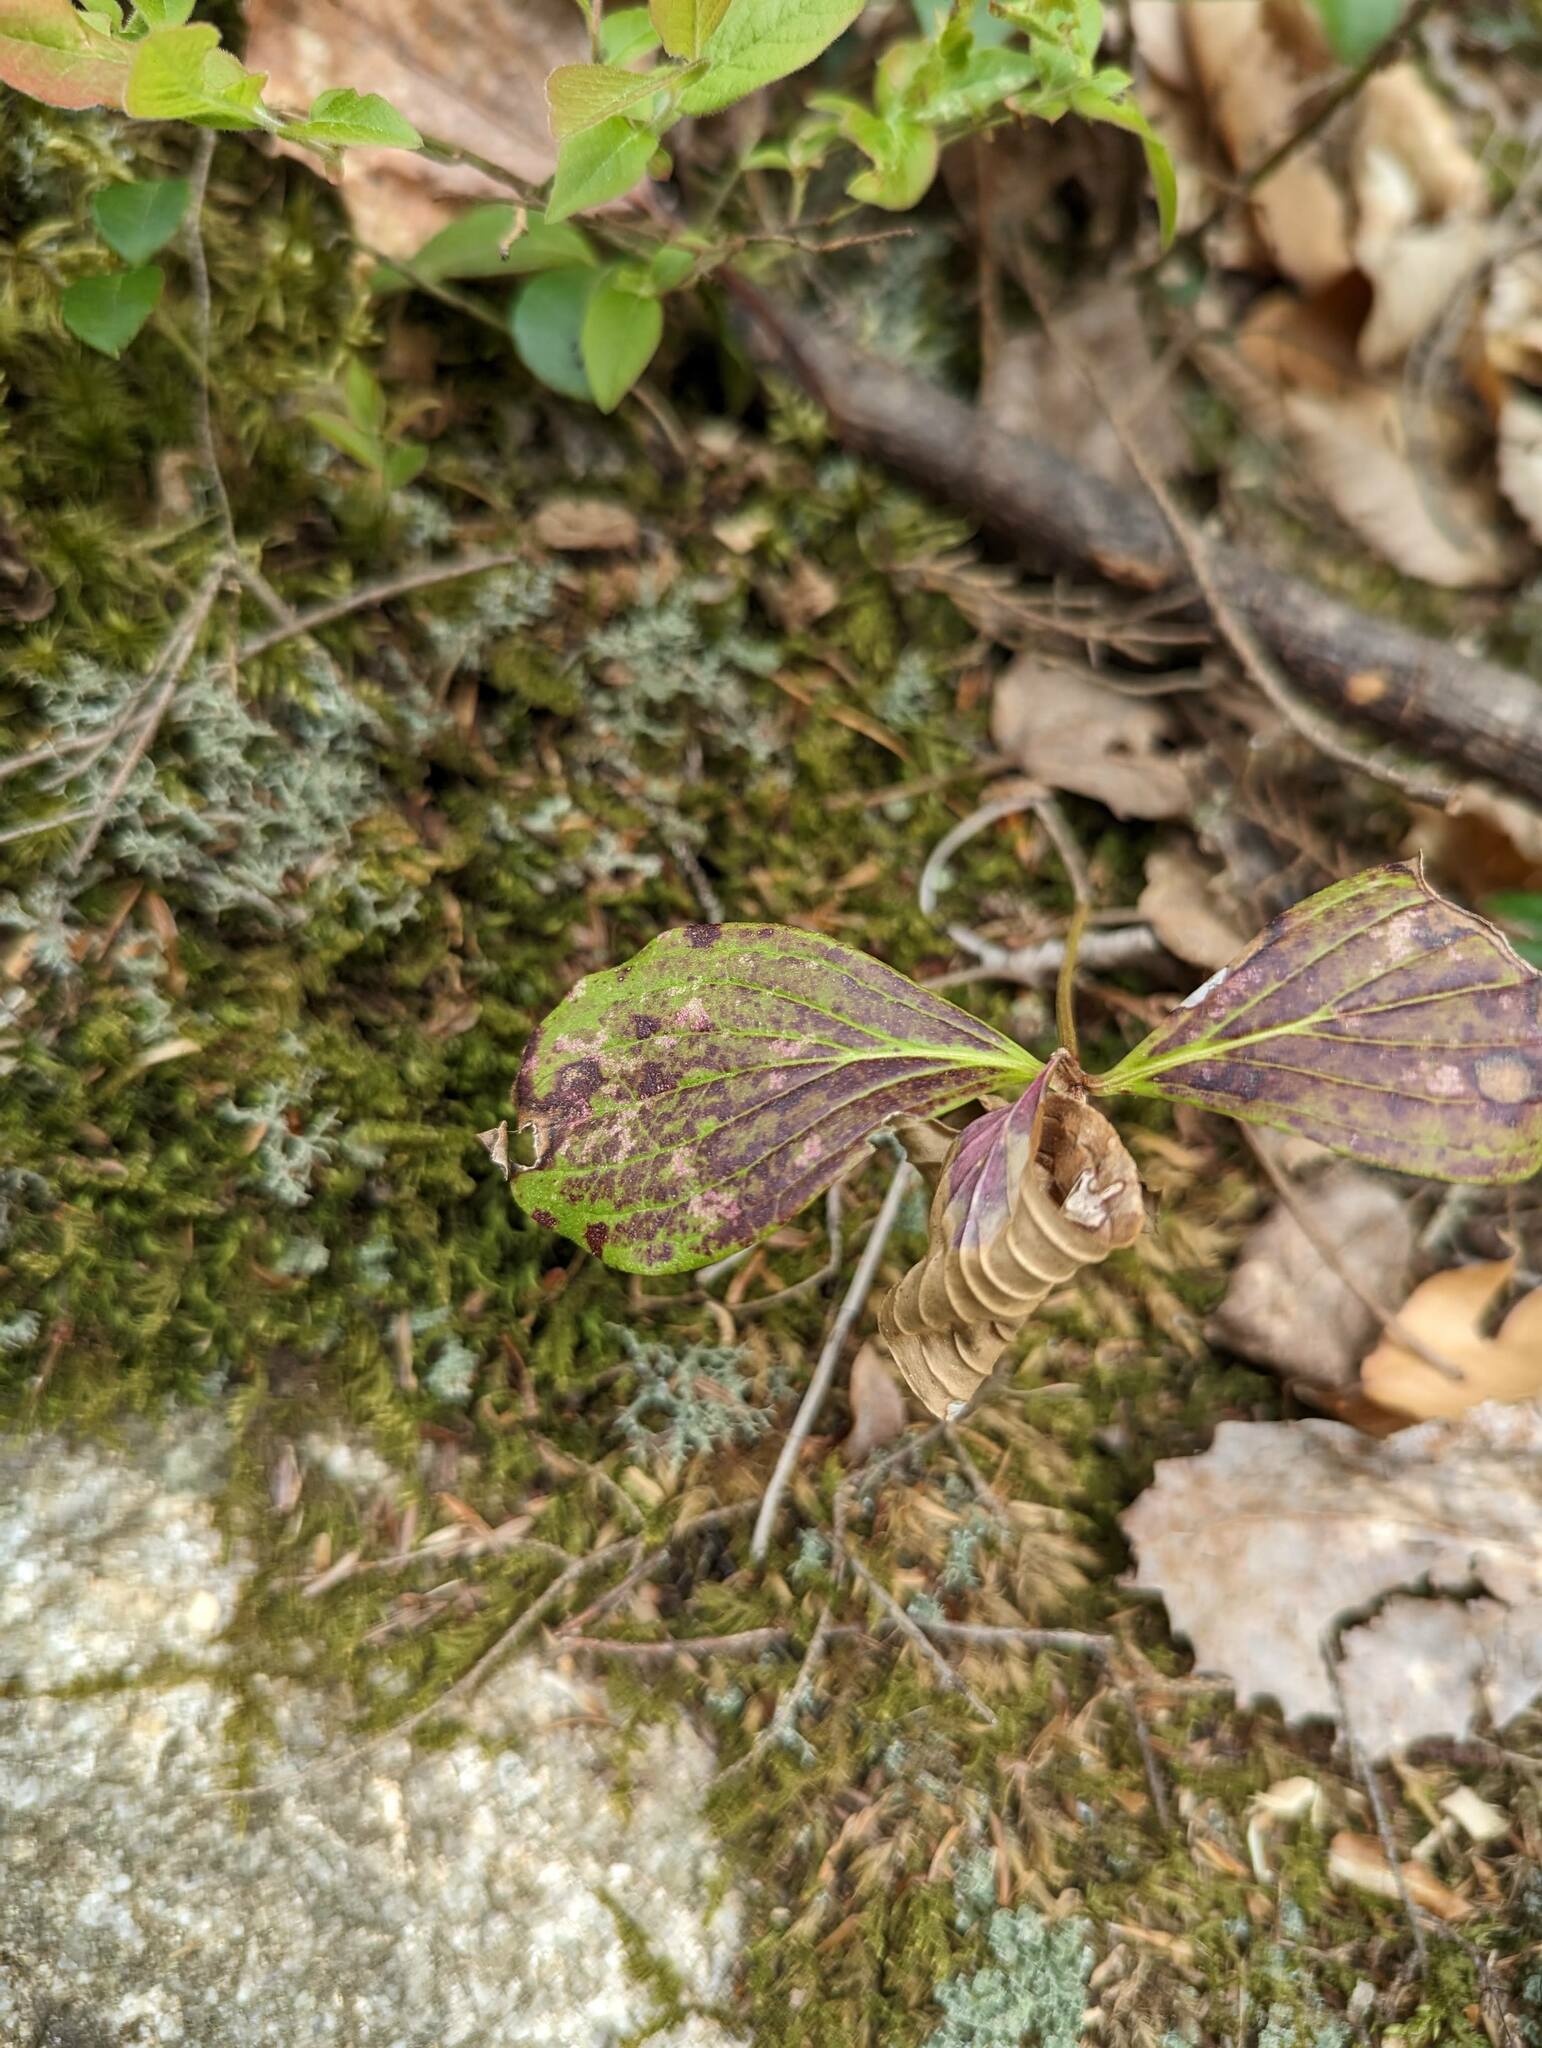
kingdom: Plantae
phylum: Tracheophyta
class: Magnoliopsida
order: Cornales
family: Cornaceae
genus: Cornus
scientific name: Cornus canadensis
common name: Creeping dogwood
